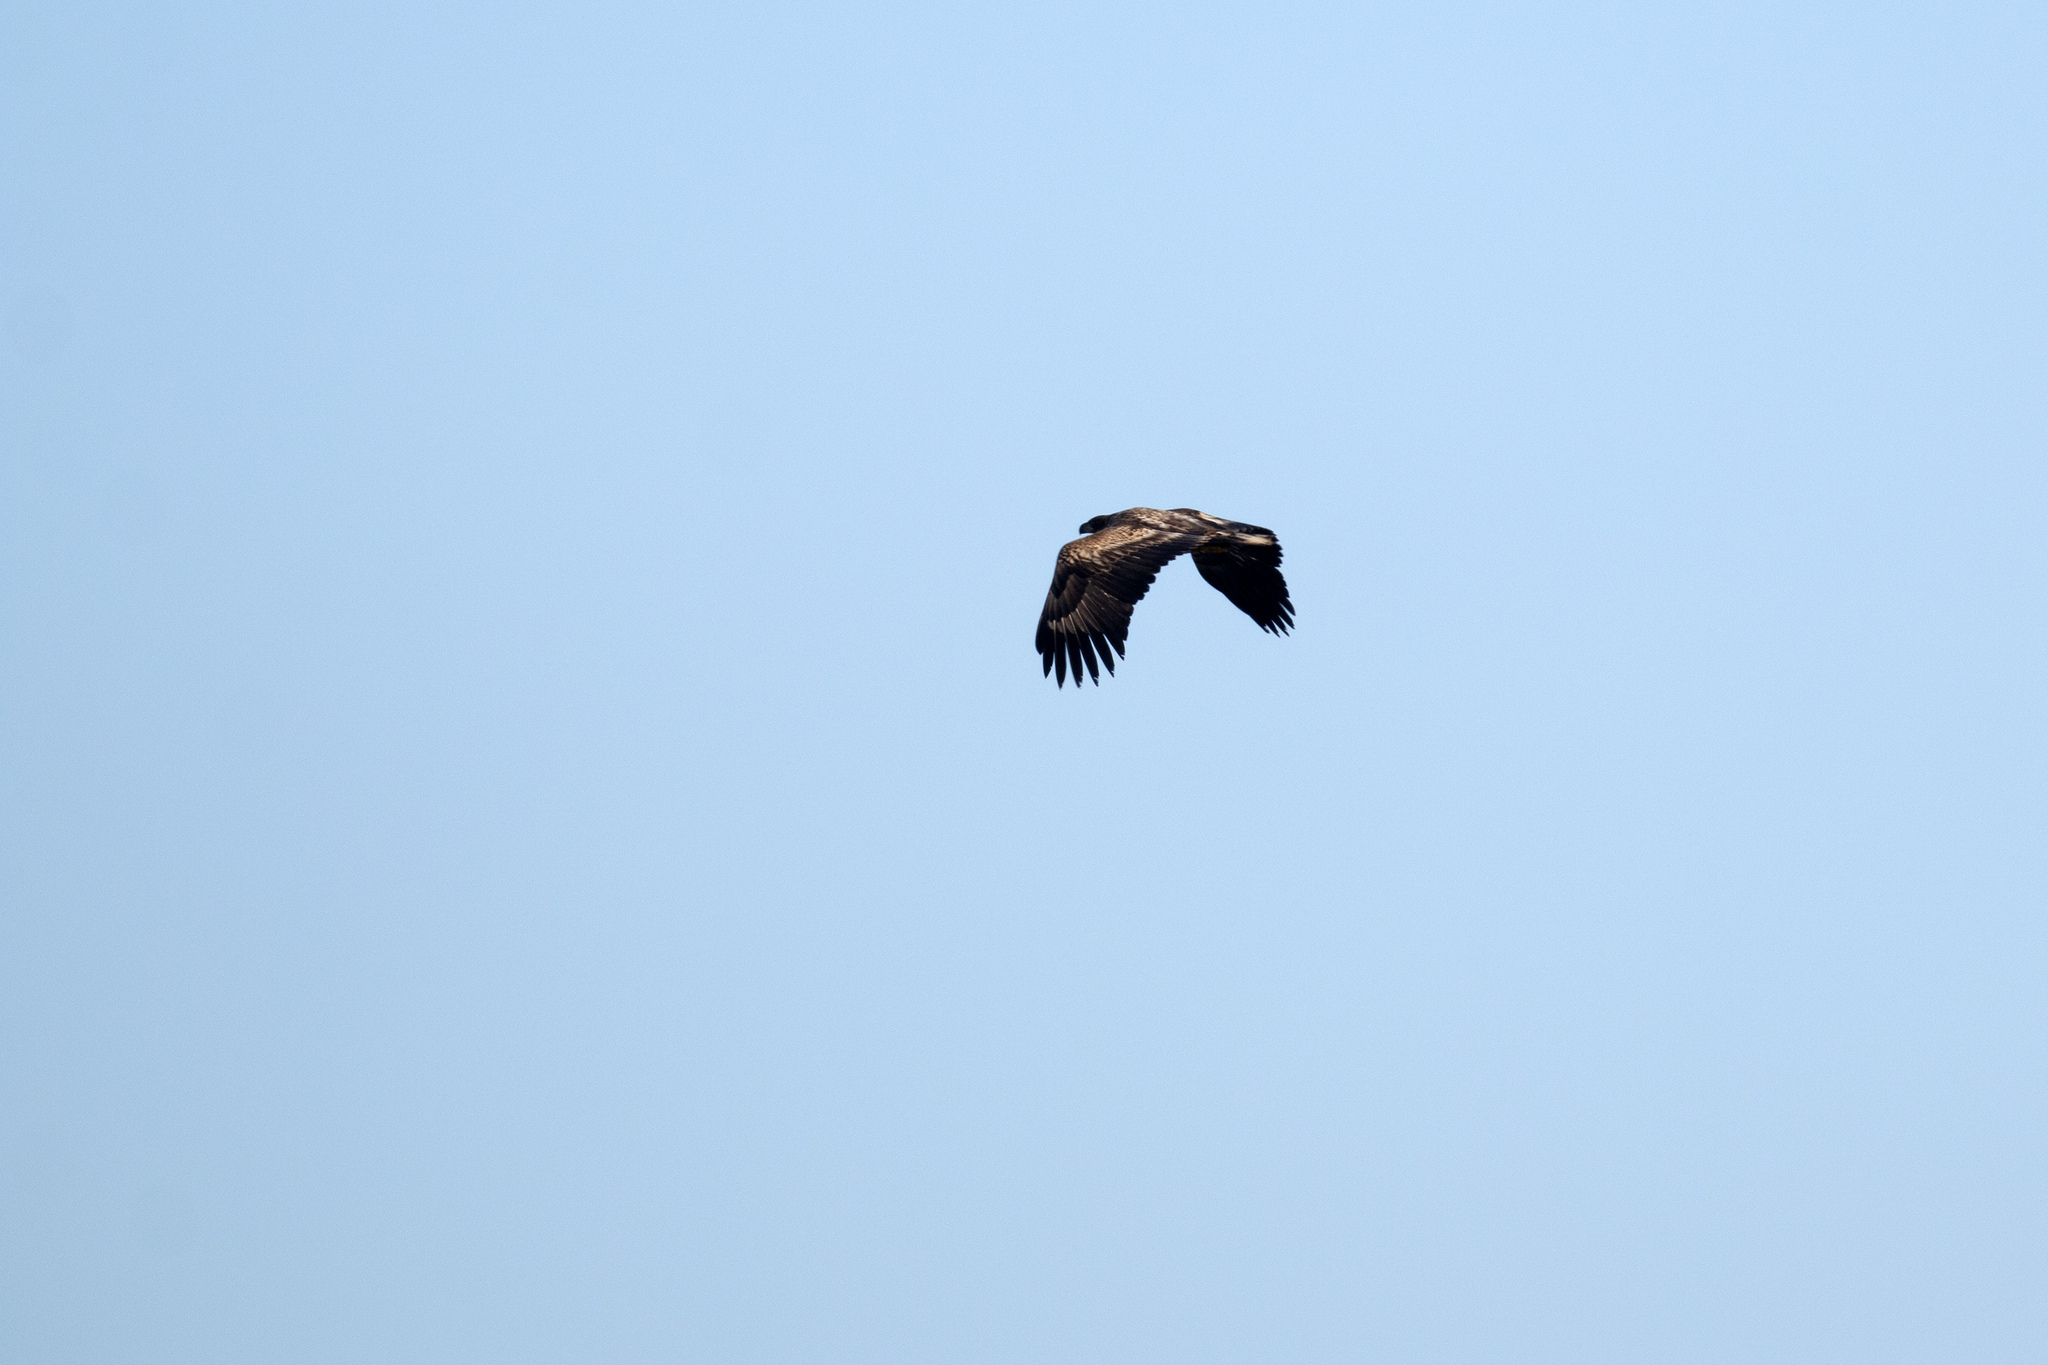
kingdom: Animalia
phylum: Chordata
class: Aves
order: Accipitriformes
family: Accipitridae
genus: Haliaeetus
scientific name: Haliaeetus albicilla
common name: White-tailed eagle
